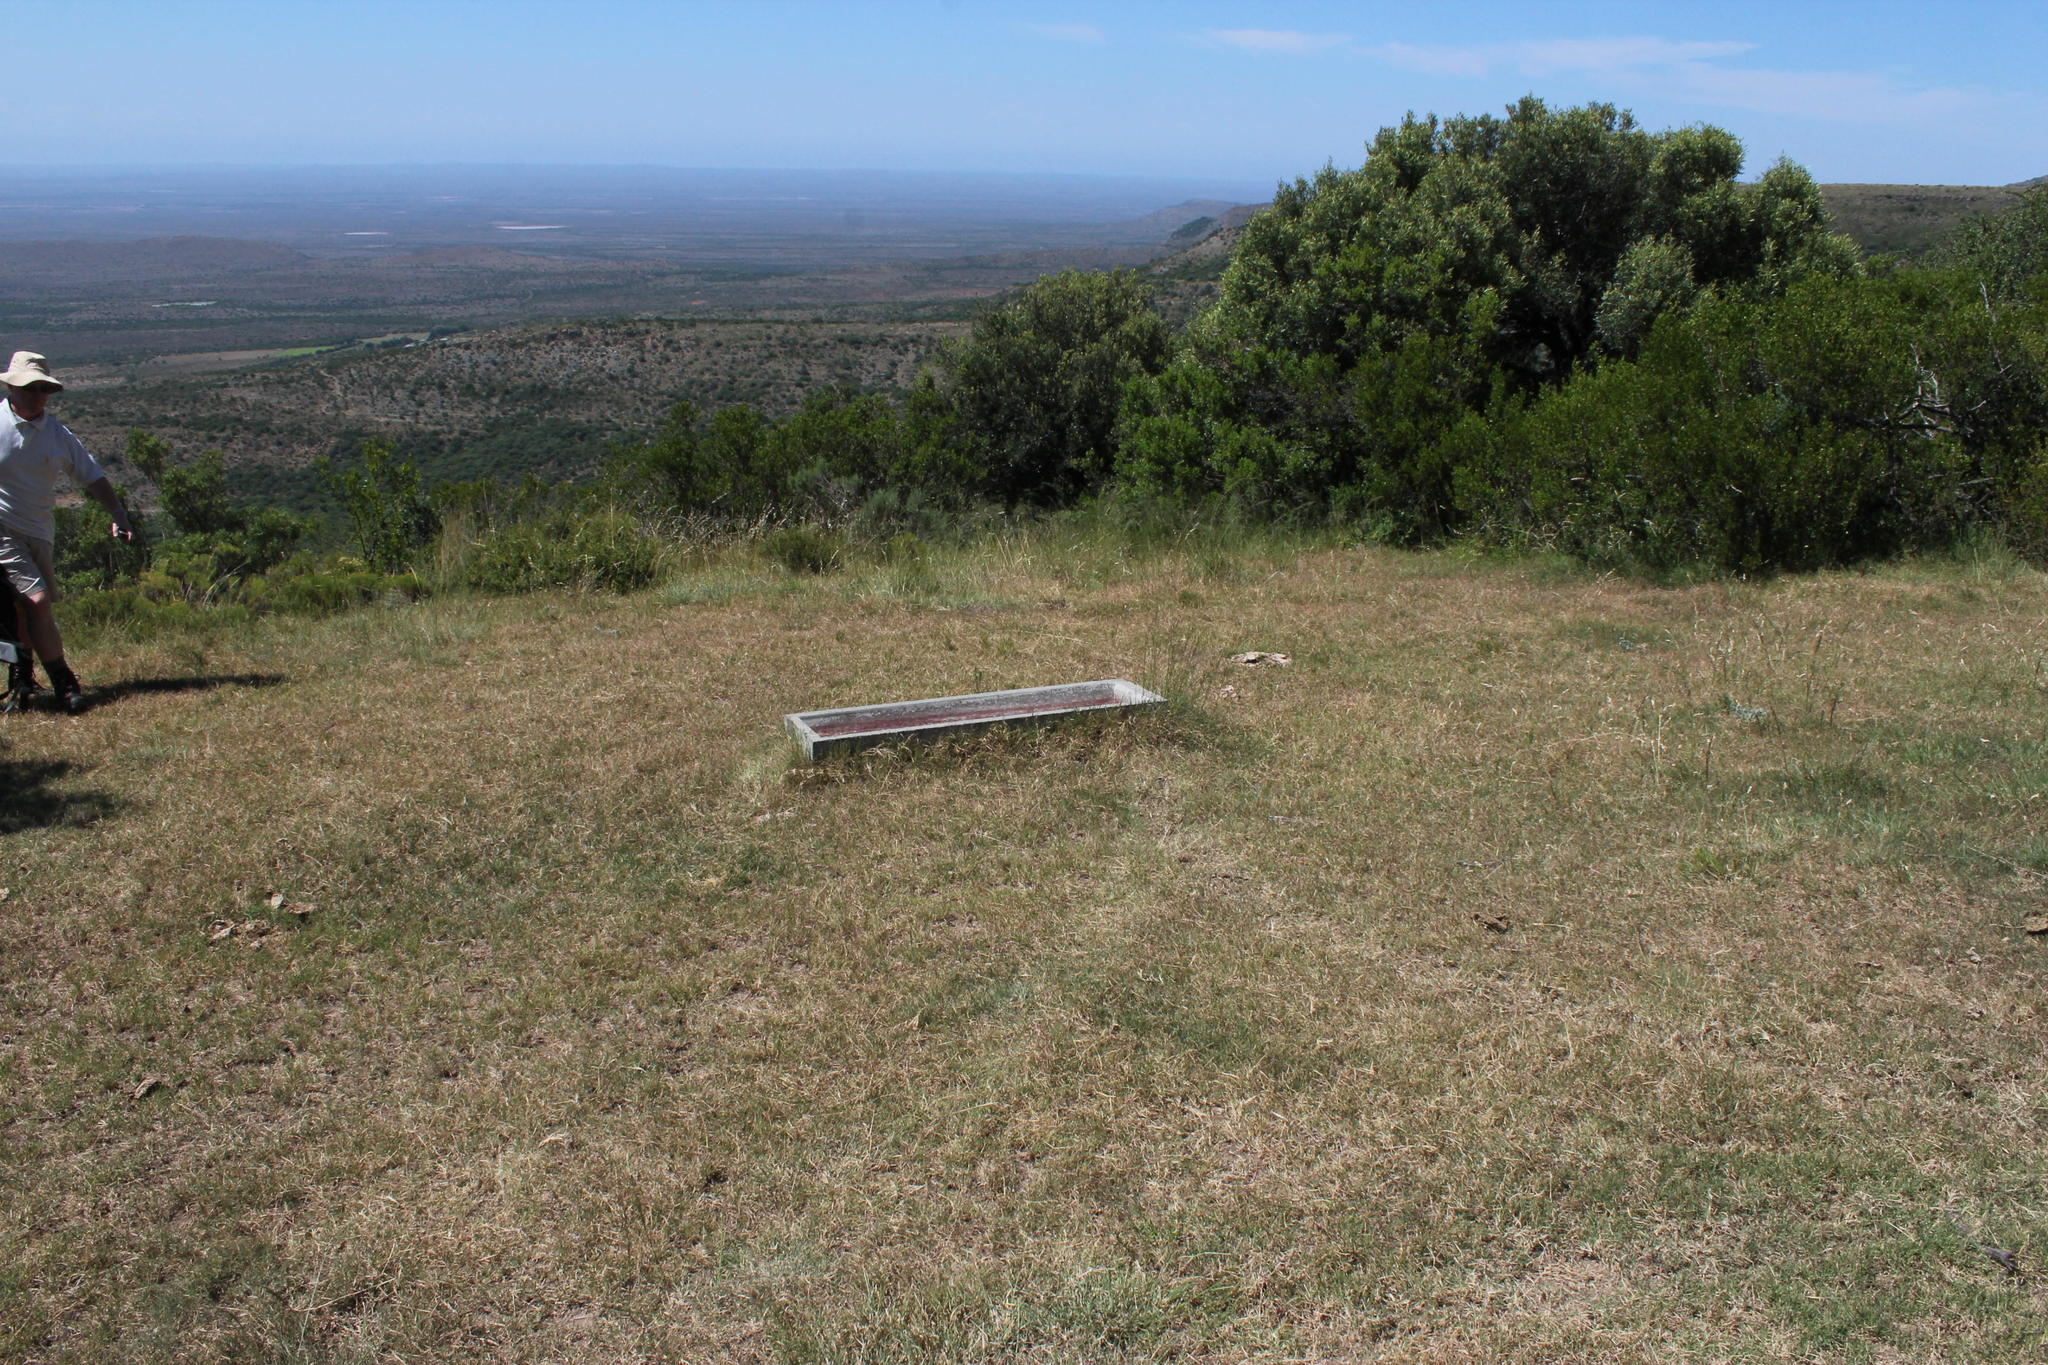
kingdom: Plantae
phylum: Tracheophyta
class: Liliopsida
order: Poales
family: Poaceae
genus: Cynodon
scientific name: Cynodon dactylon
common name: Bermuda grass
